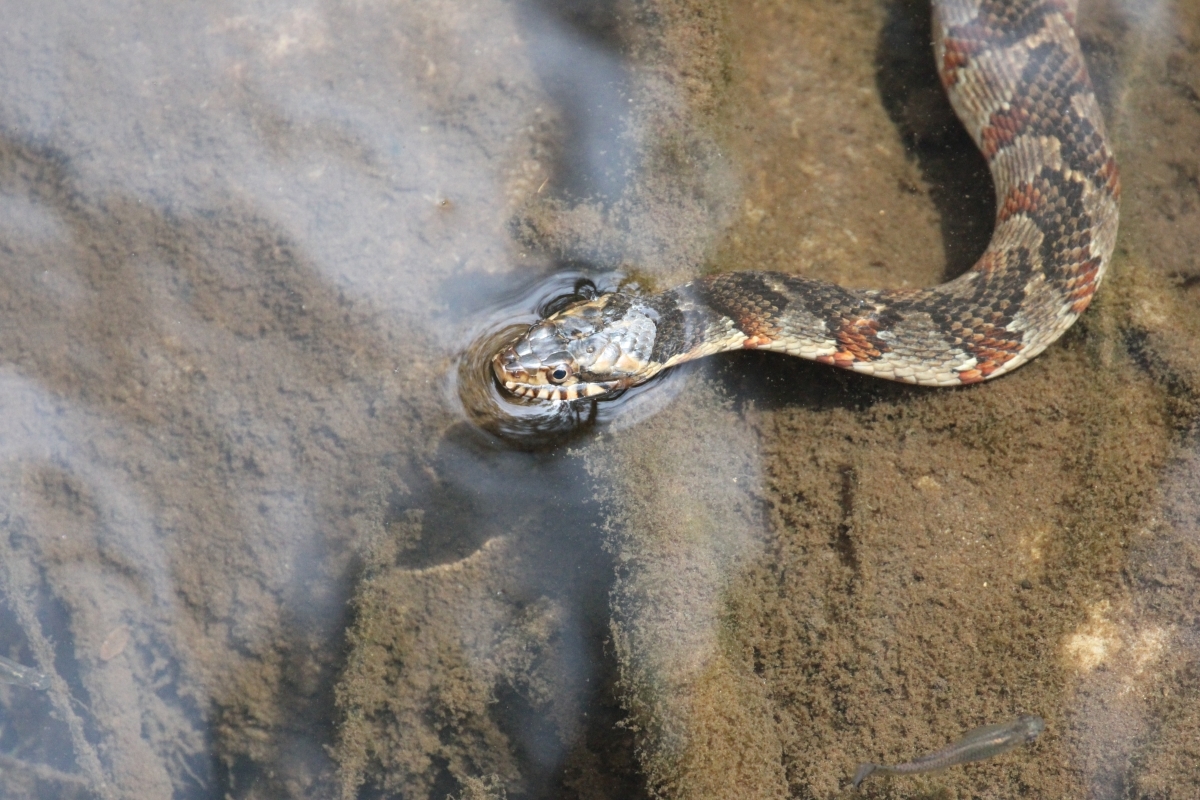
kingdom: Animalia
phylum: Chordata
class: Squamata
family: Colubridae
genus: Nerodia
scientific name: Nerodia fasciata
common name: Southern water snake
